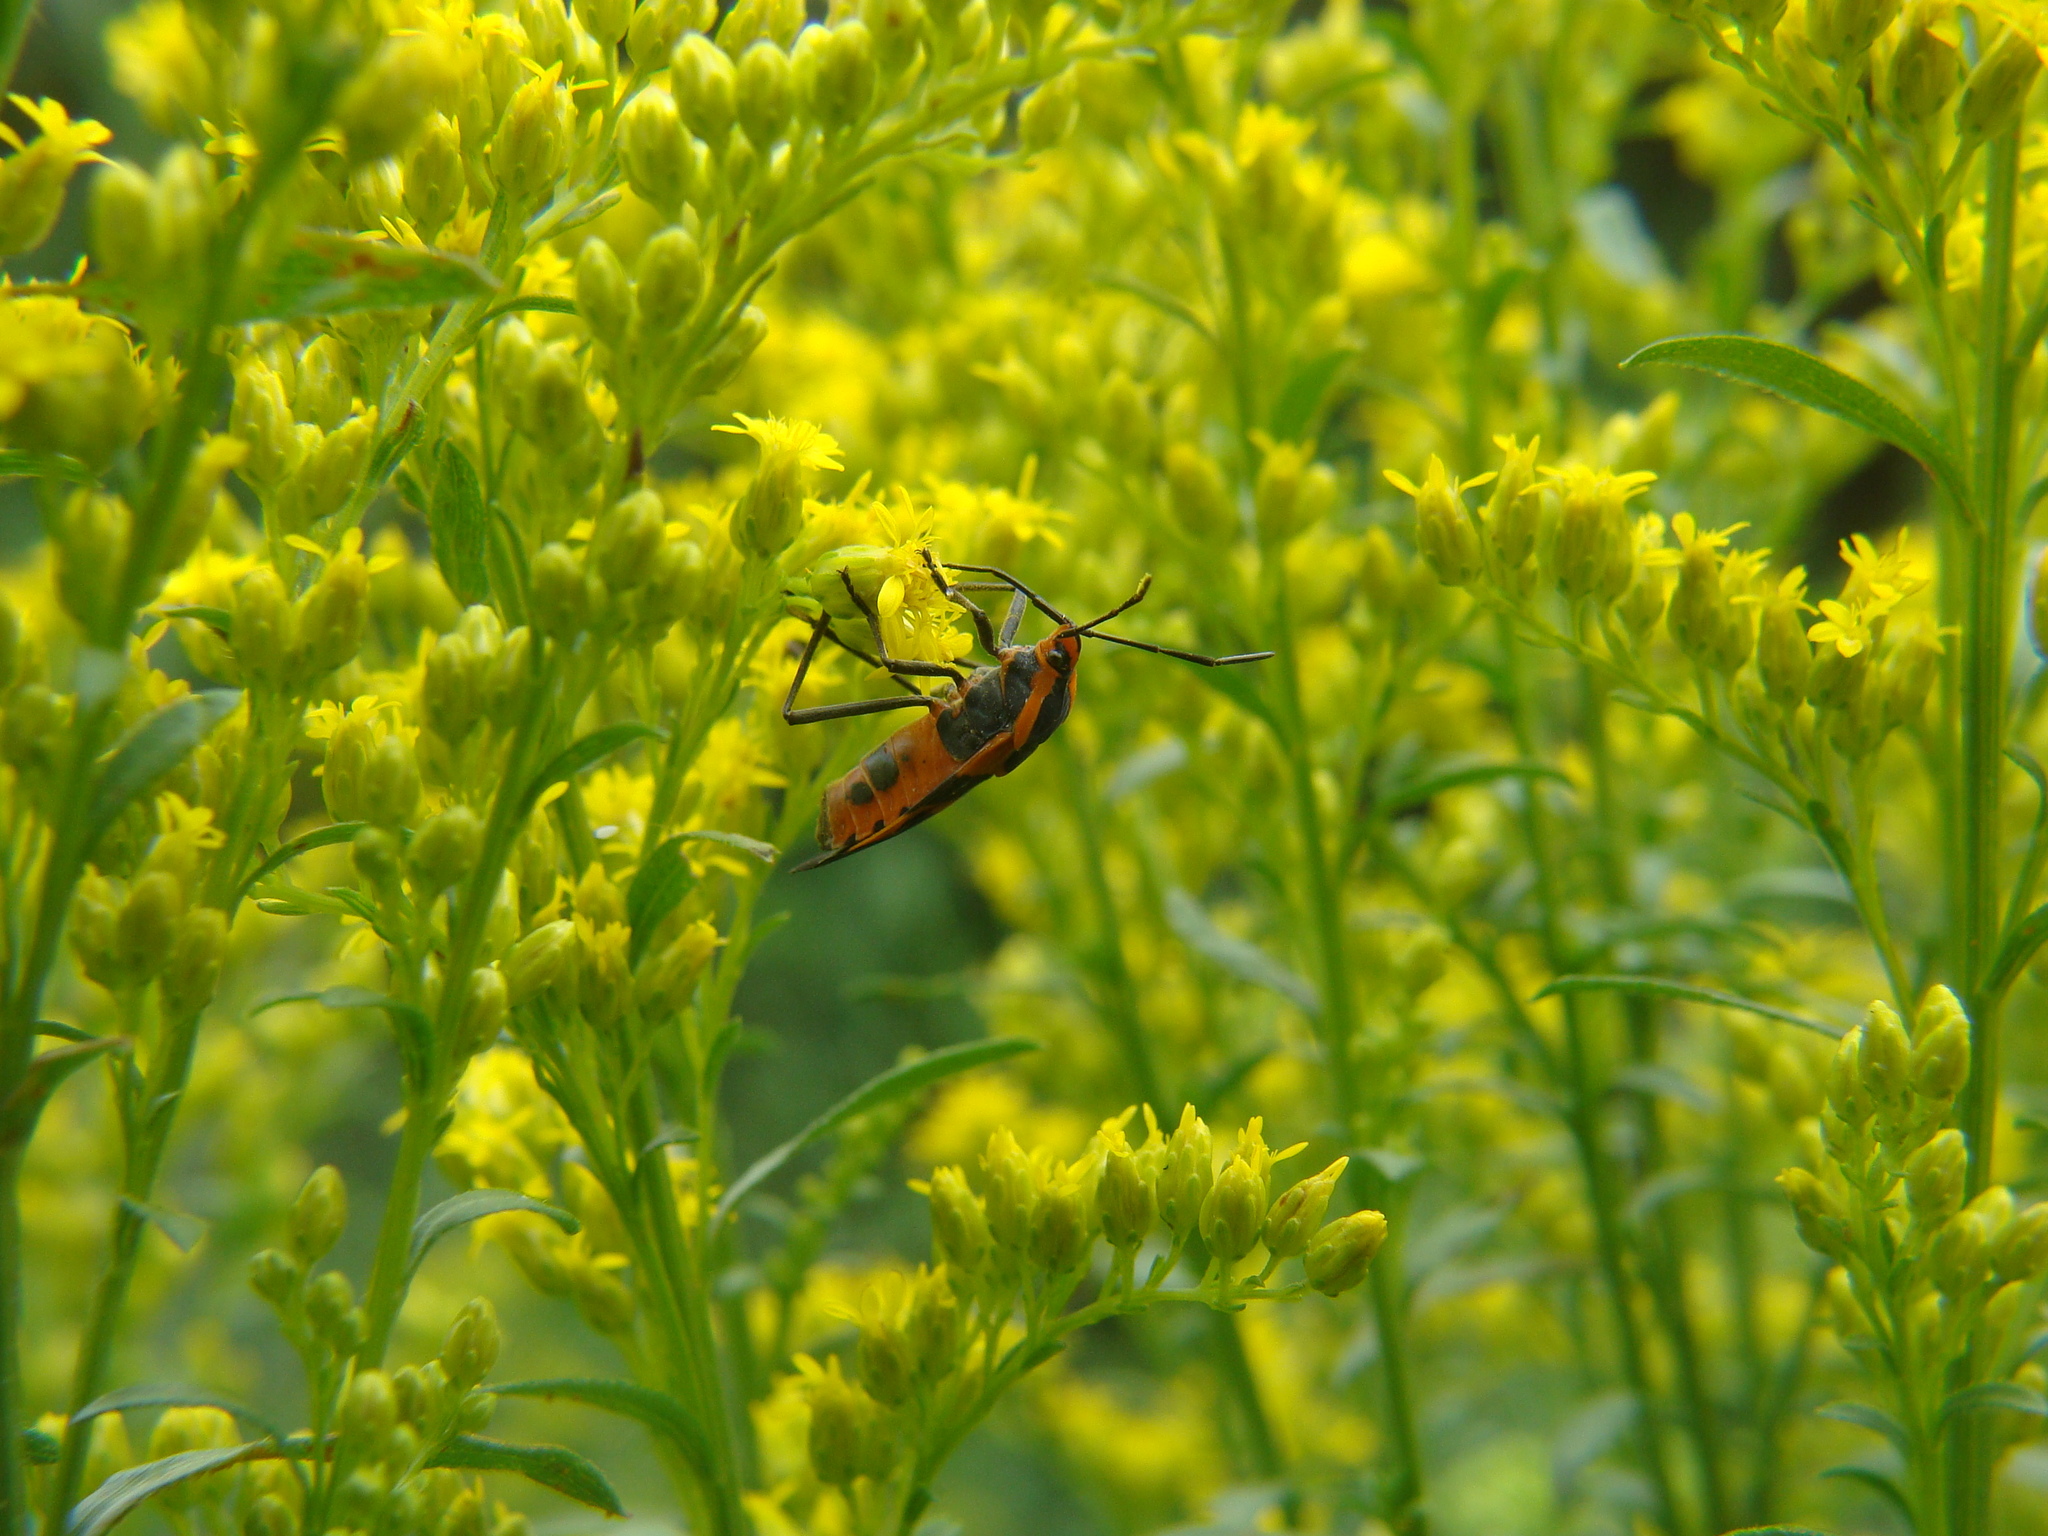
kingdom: Animalia
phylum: Arthropoda
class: Insecta
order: Hemiptera
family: Lygaeidae
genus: Oncopeltus
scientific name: Oncopeltus fasciatus
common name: Large milkweed bug
